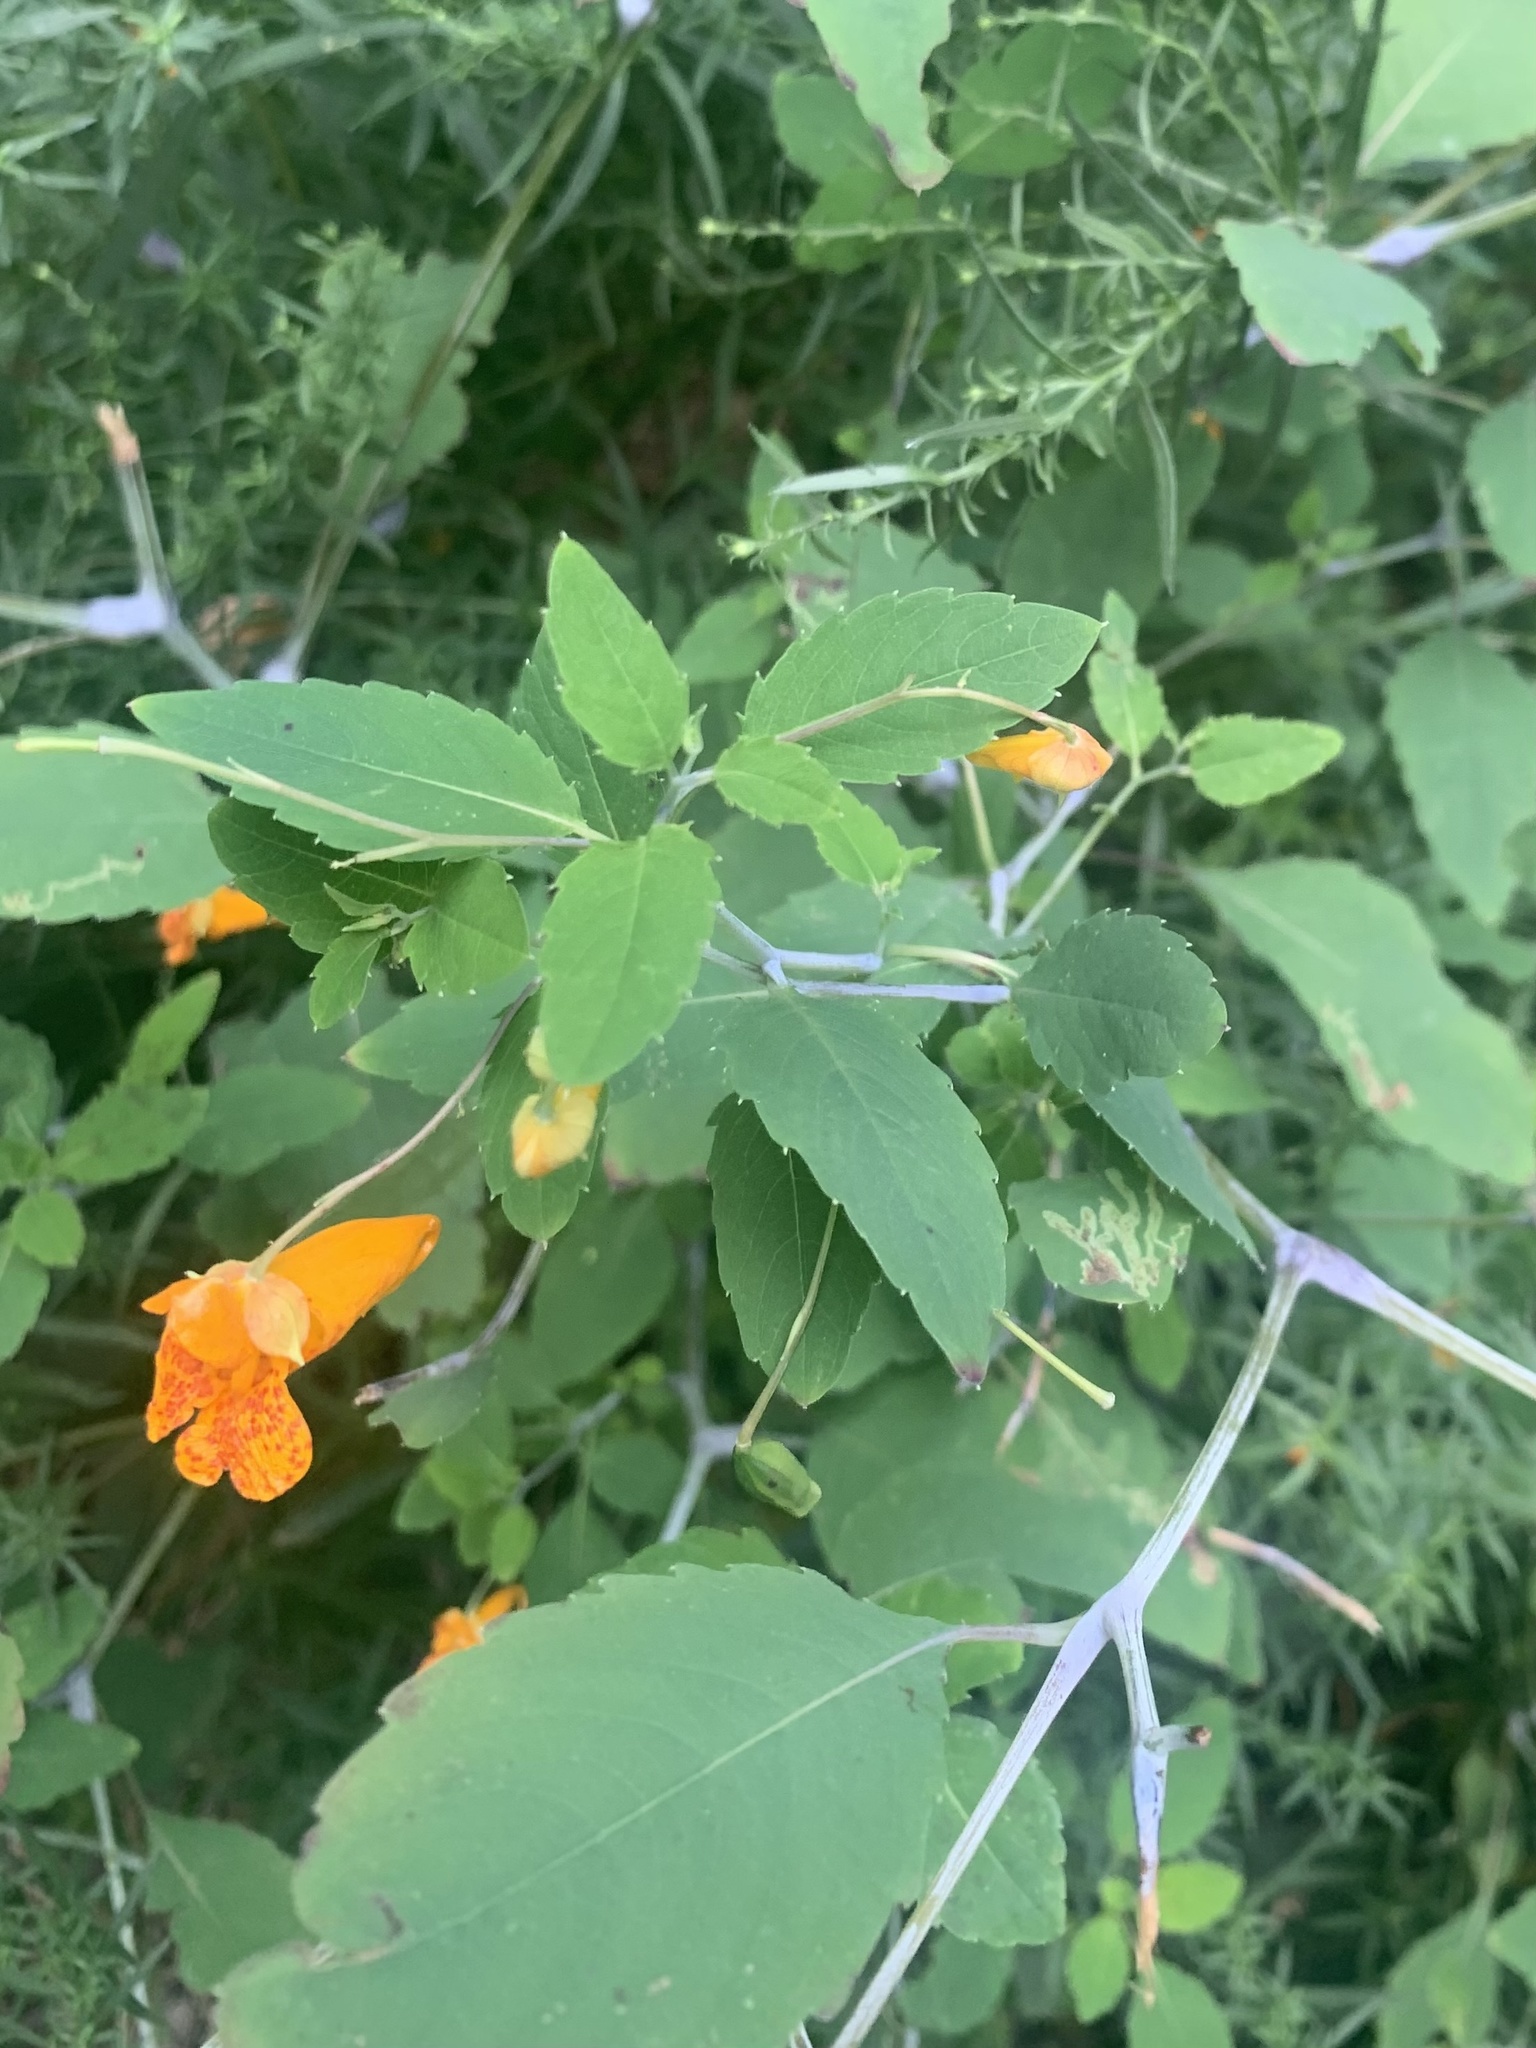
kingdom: Plantae
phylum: Tracheophyta
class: Magnoliopsida
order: Ericales
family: Balsaminaceae
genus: Impatiens
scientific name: Impatiens capensis
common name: Orange balsam
